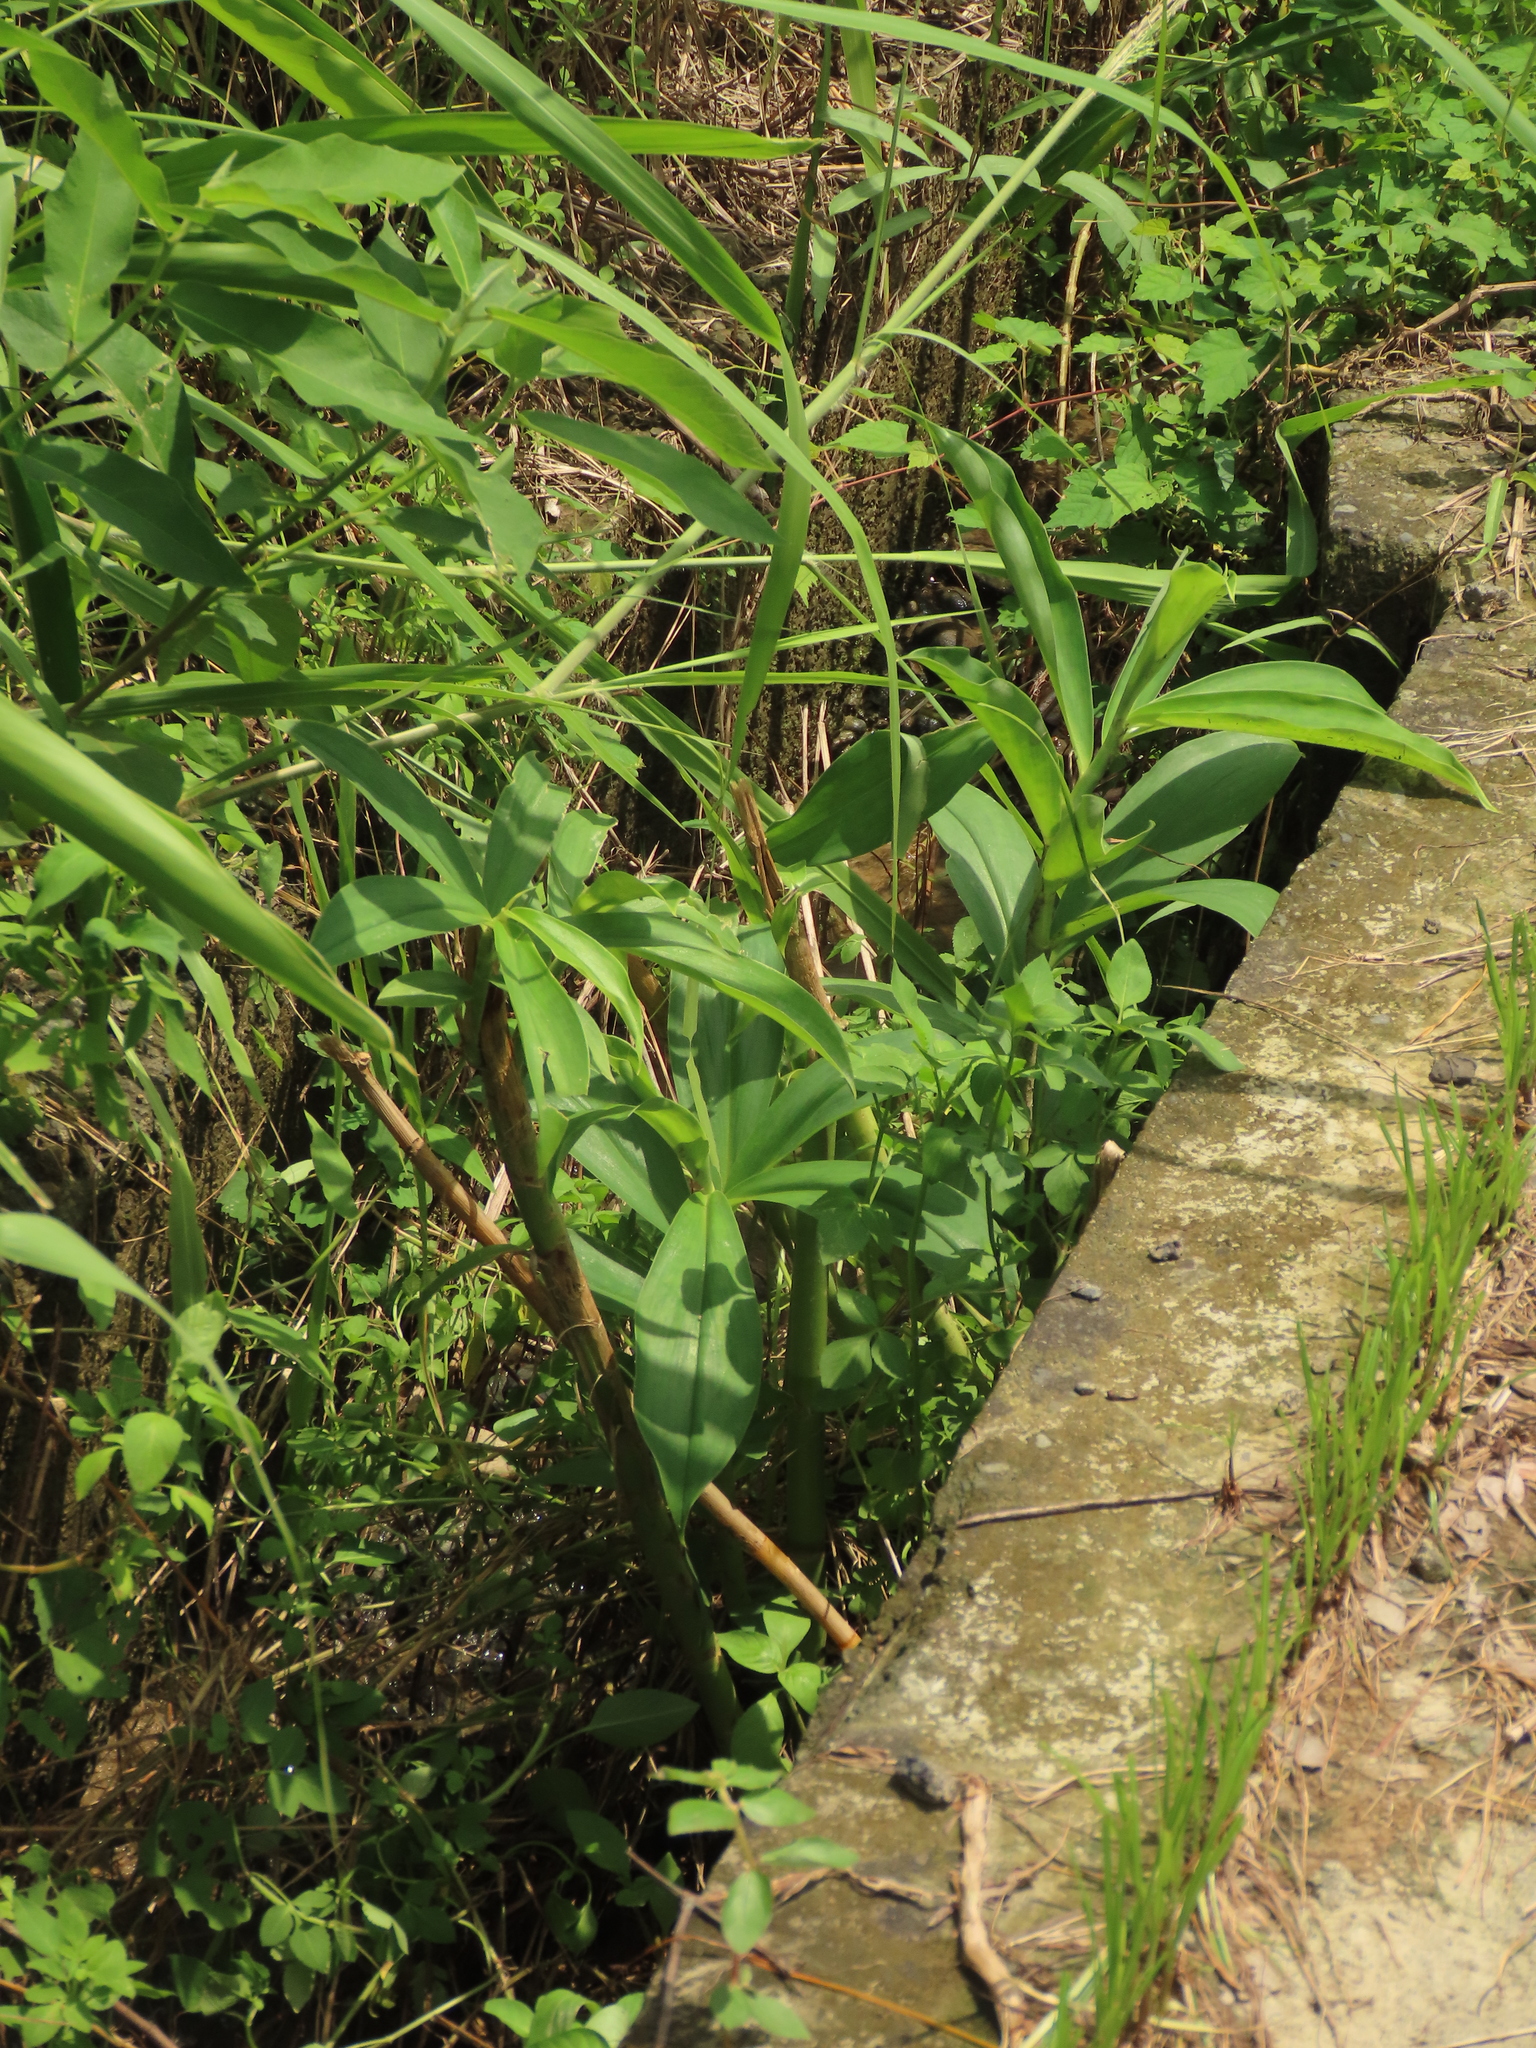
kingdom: Plantae
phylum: Tracheophyta
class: Liliopsida
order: Zingiberales
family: Costaceae
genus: Hellenia
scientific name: Hellenia speciosa
